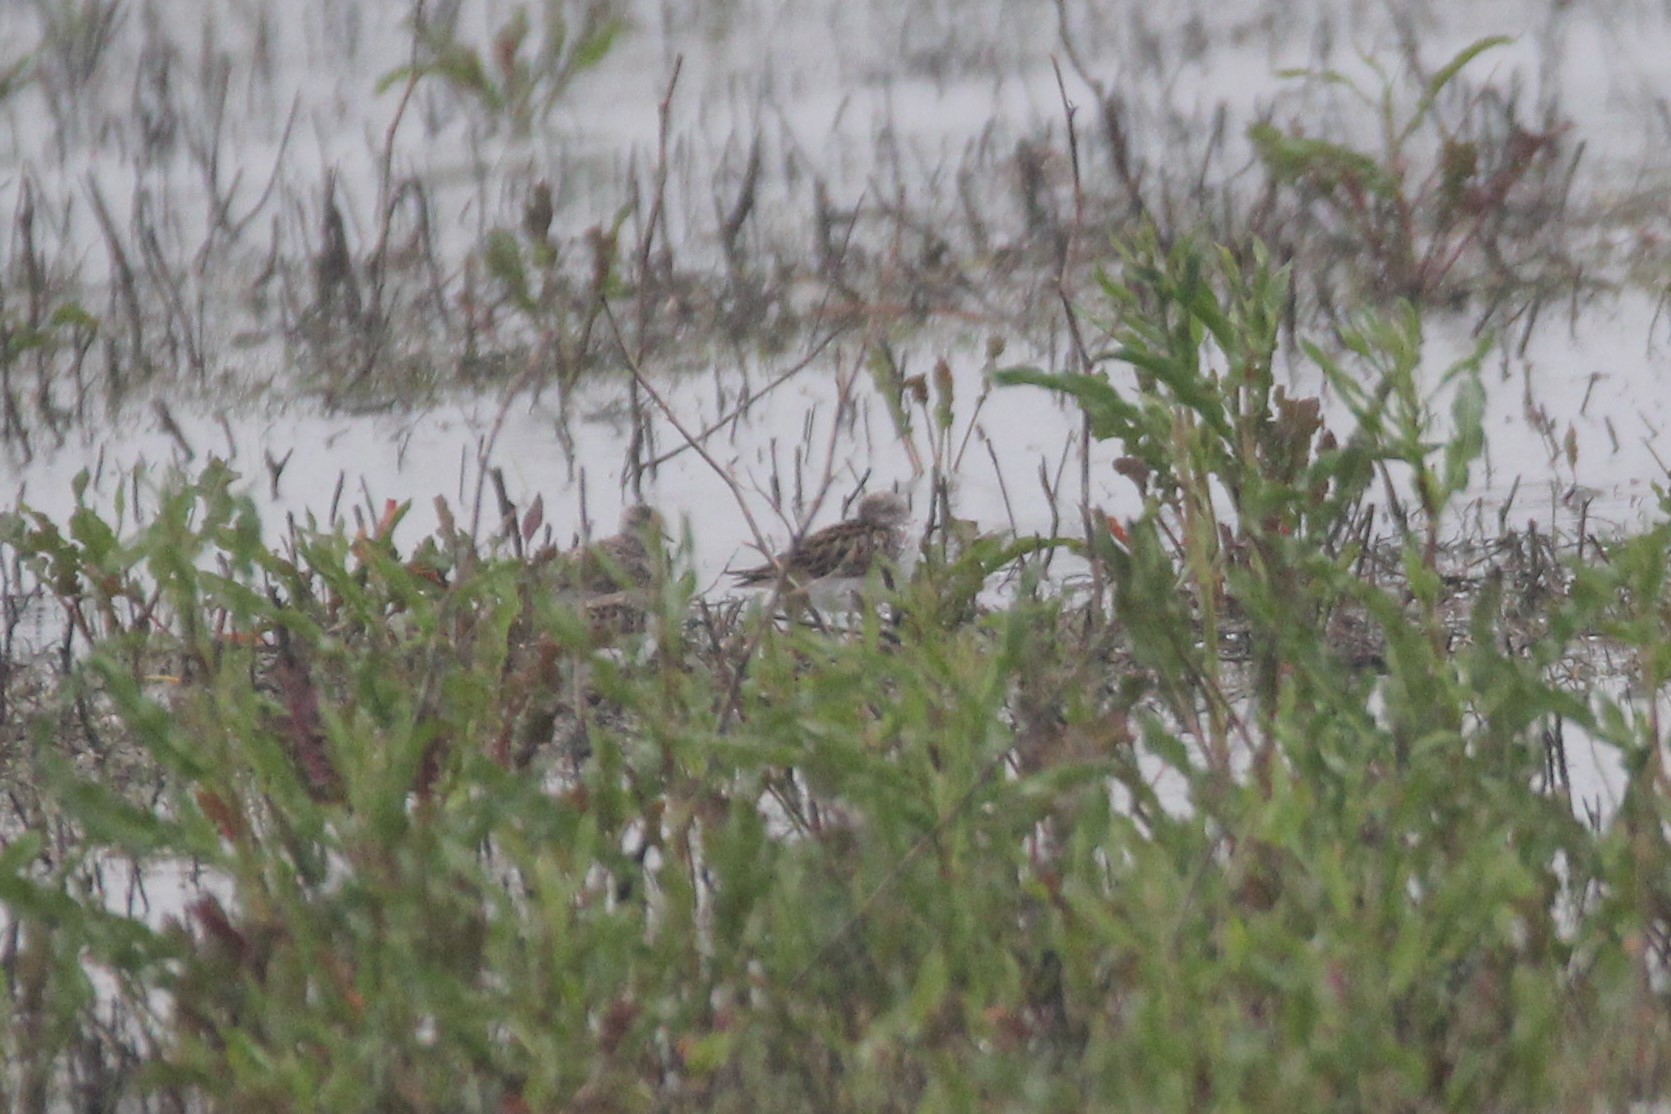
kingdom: Animalia
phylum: Chordata
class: Aves
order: Charadriiformes
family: Scolopacidae
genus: Calidris
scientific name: Calidris pusilla
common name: Semipalmated sandpiper
